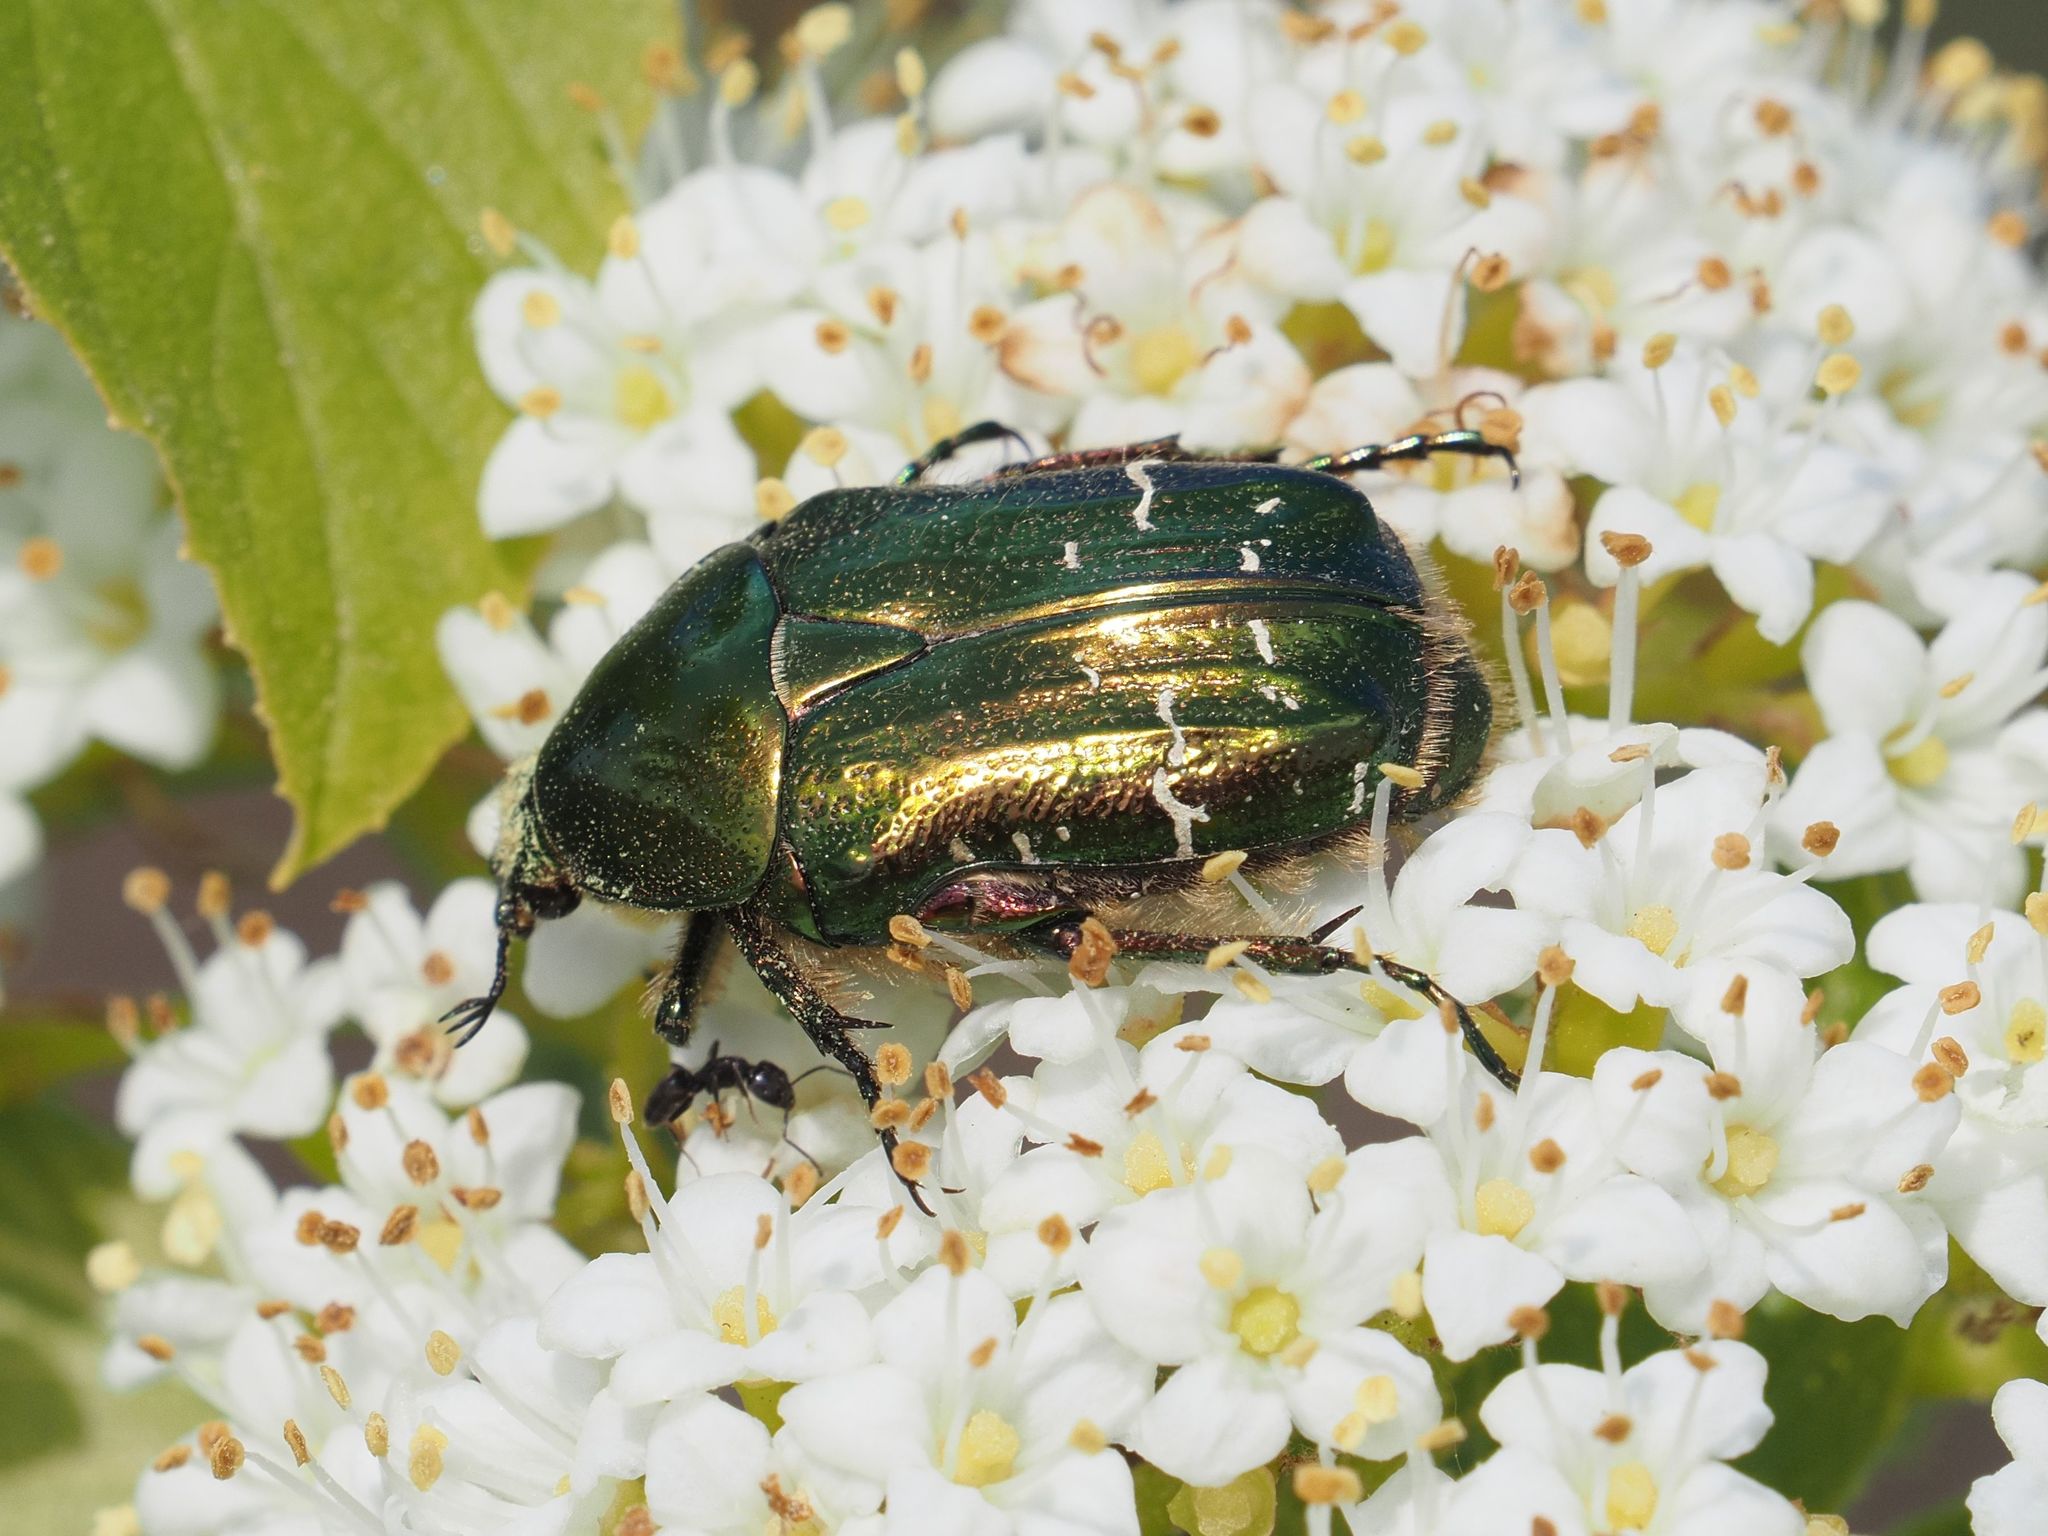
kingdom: Animalia
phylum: Arthropoda
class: Insecta
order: Coleoptera
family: Scarabaeidae
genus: Cetonia
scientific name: Cetonia aurata
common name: Rose chafer
